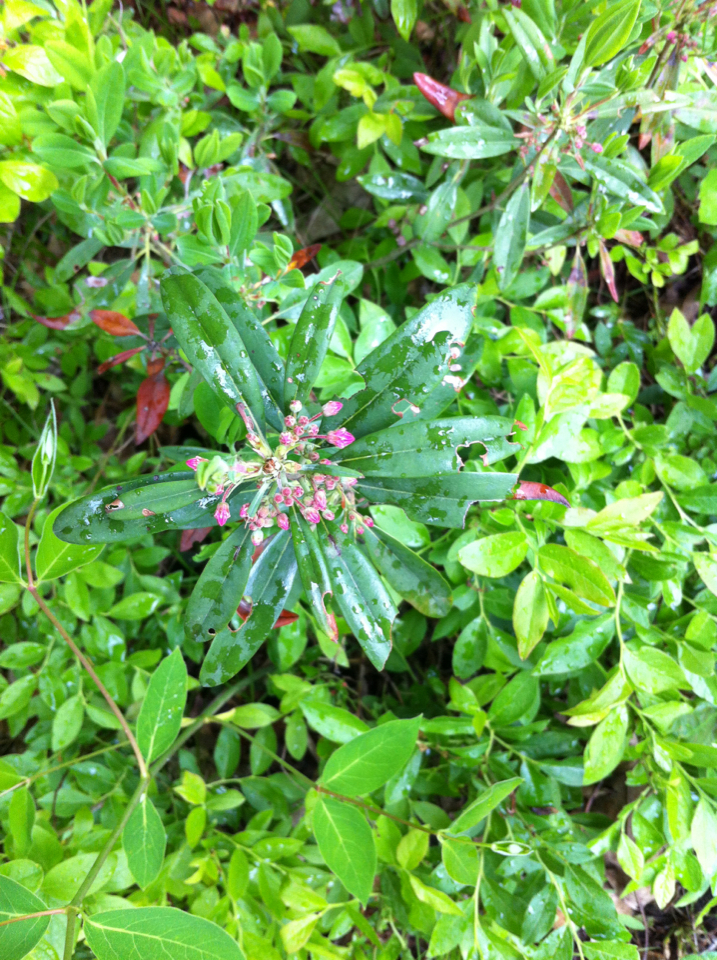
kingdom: Plantae
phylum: Tracheophyta
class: Magnoliopsida
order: Ericales
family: Ericaceae
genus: Kalmia
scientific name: Kalmia angustifolia
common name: Sheep-laurel
